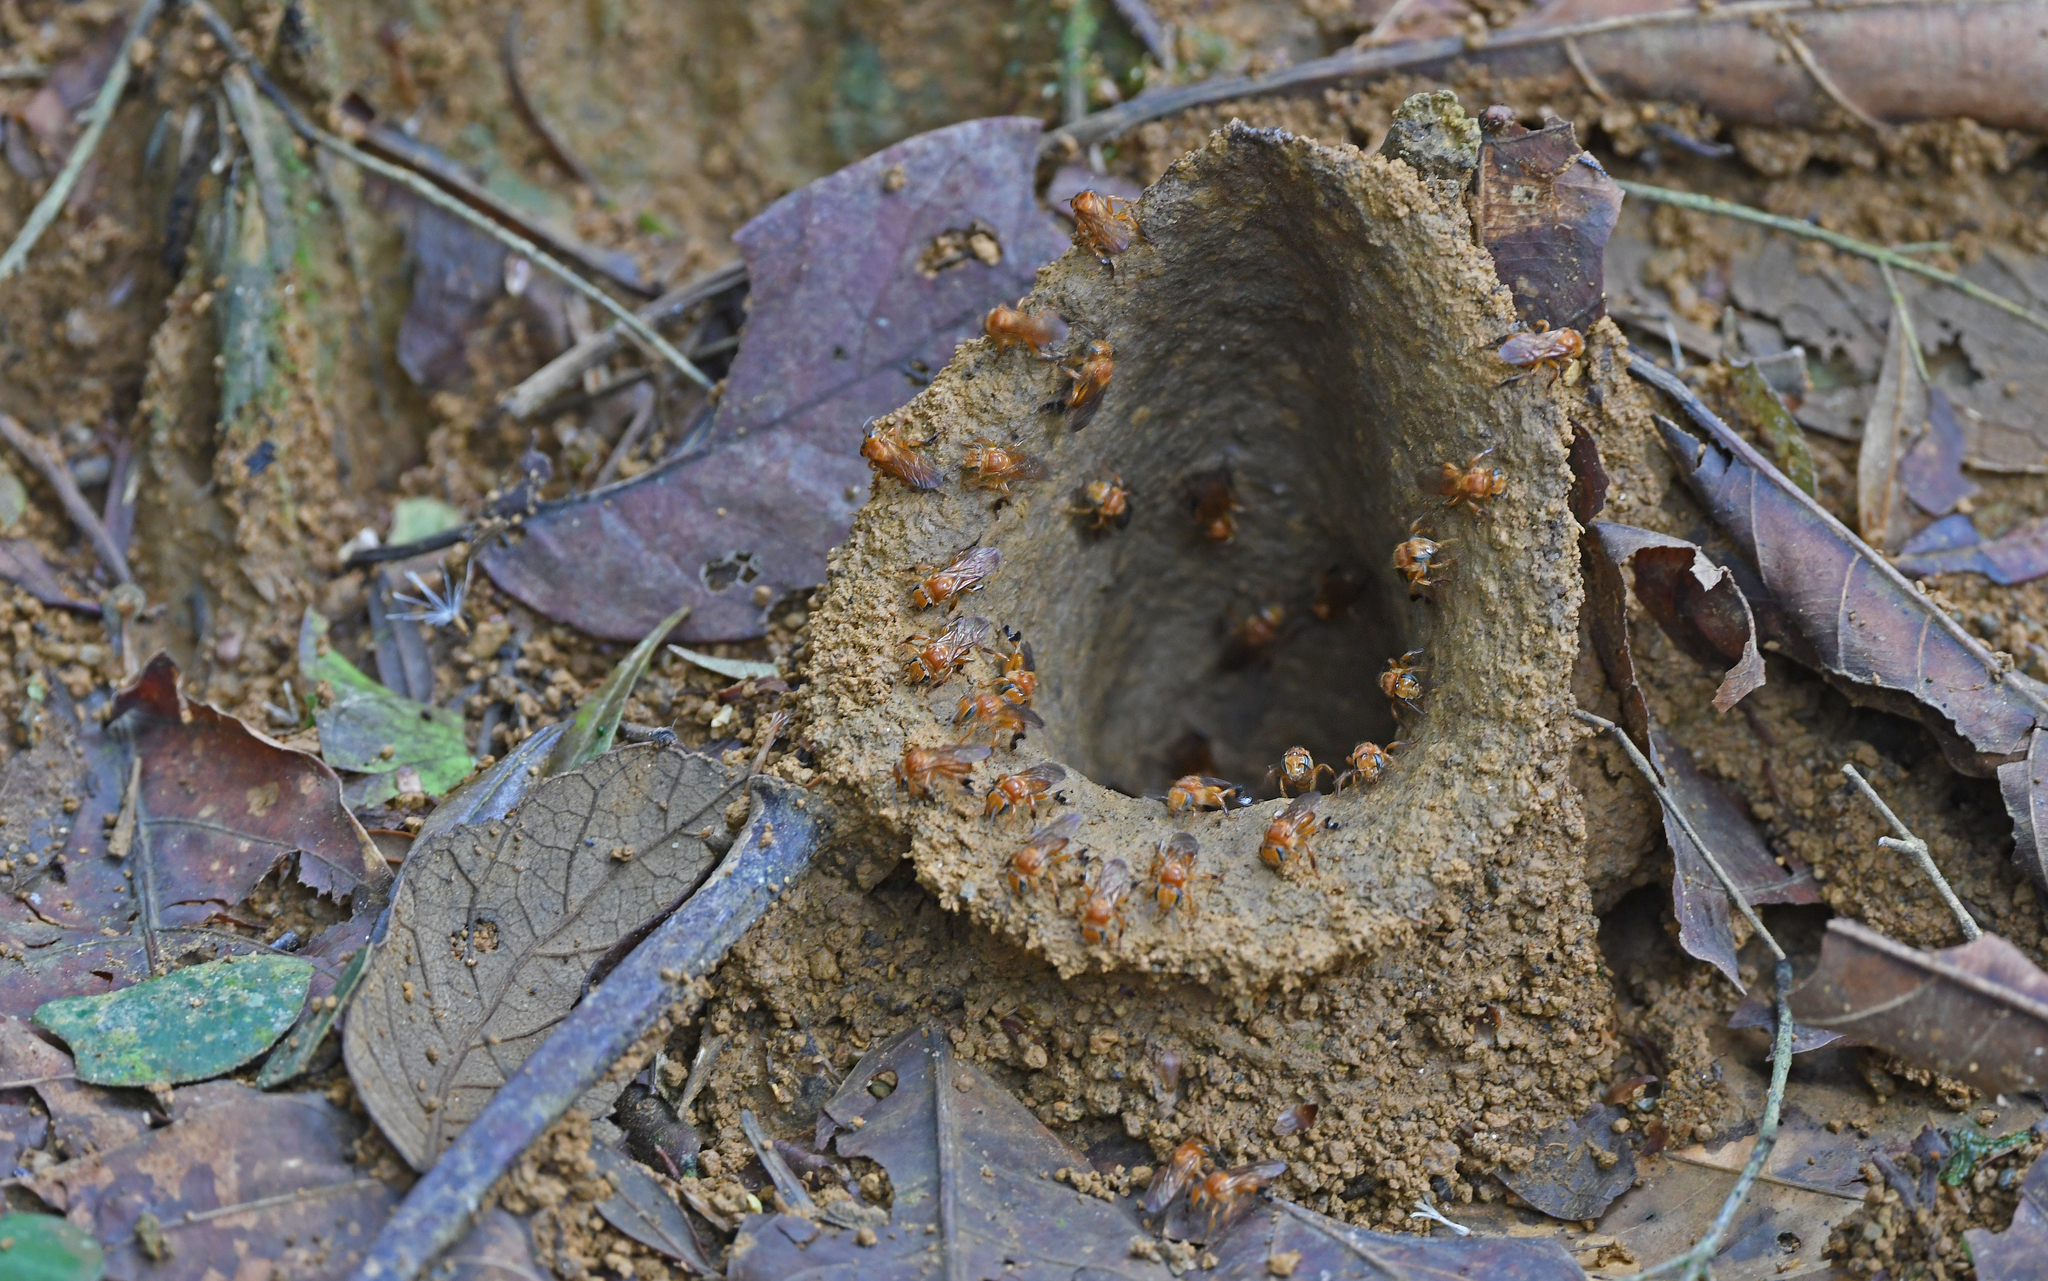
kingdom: Animalia
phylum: Arthropoda
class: Insecta
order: Hymenoptera
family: Apidae
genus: Partamona
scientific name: Partamona testacea
